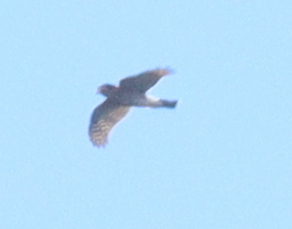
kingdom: Animalia
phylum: Chordata
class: Aves
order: Accipitriformes
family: Accipitridae
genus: Accipiter
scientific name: Accipiter nisus
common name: Eurasian sparrowhawk
